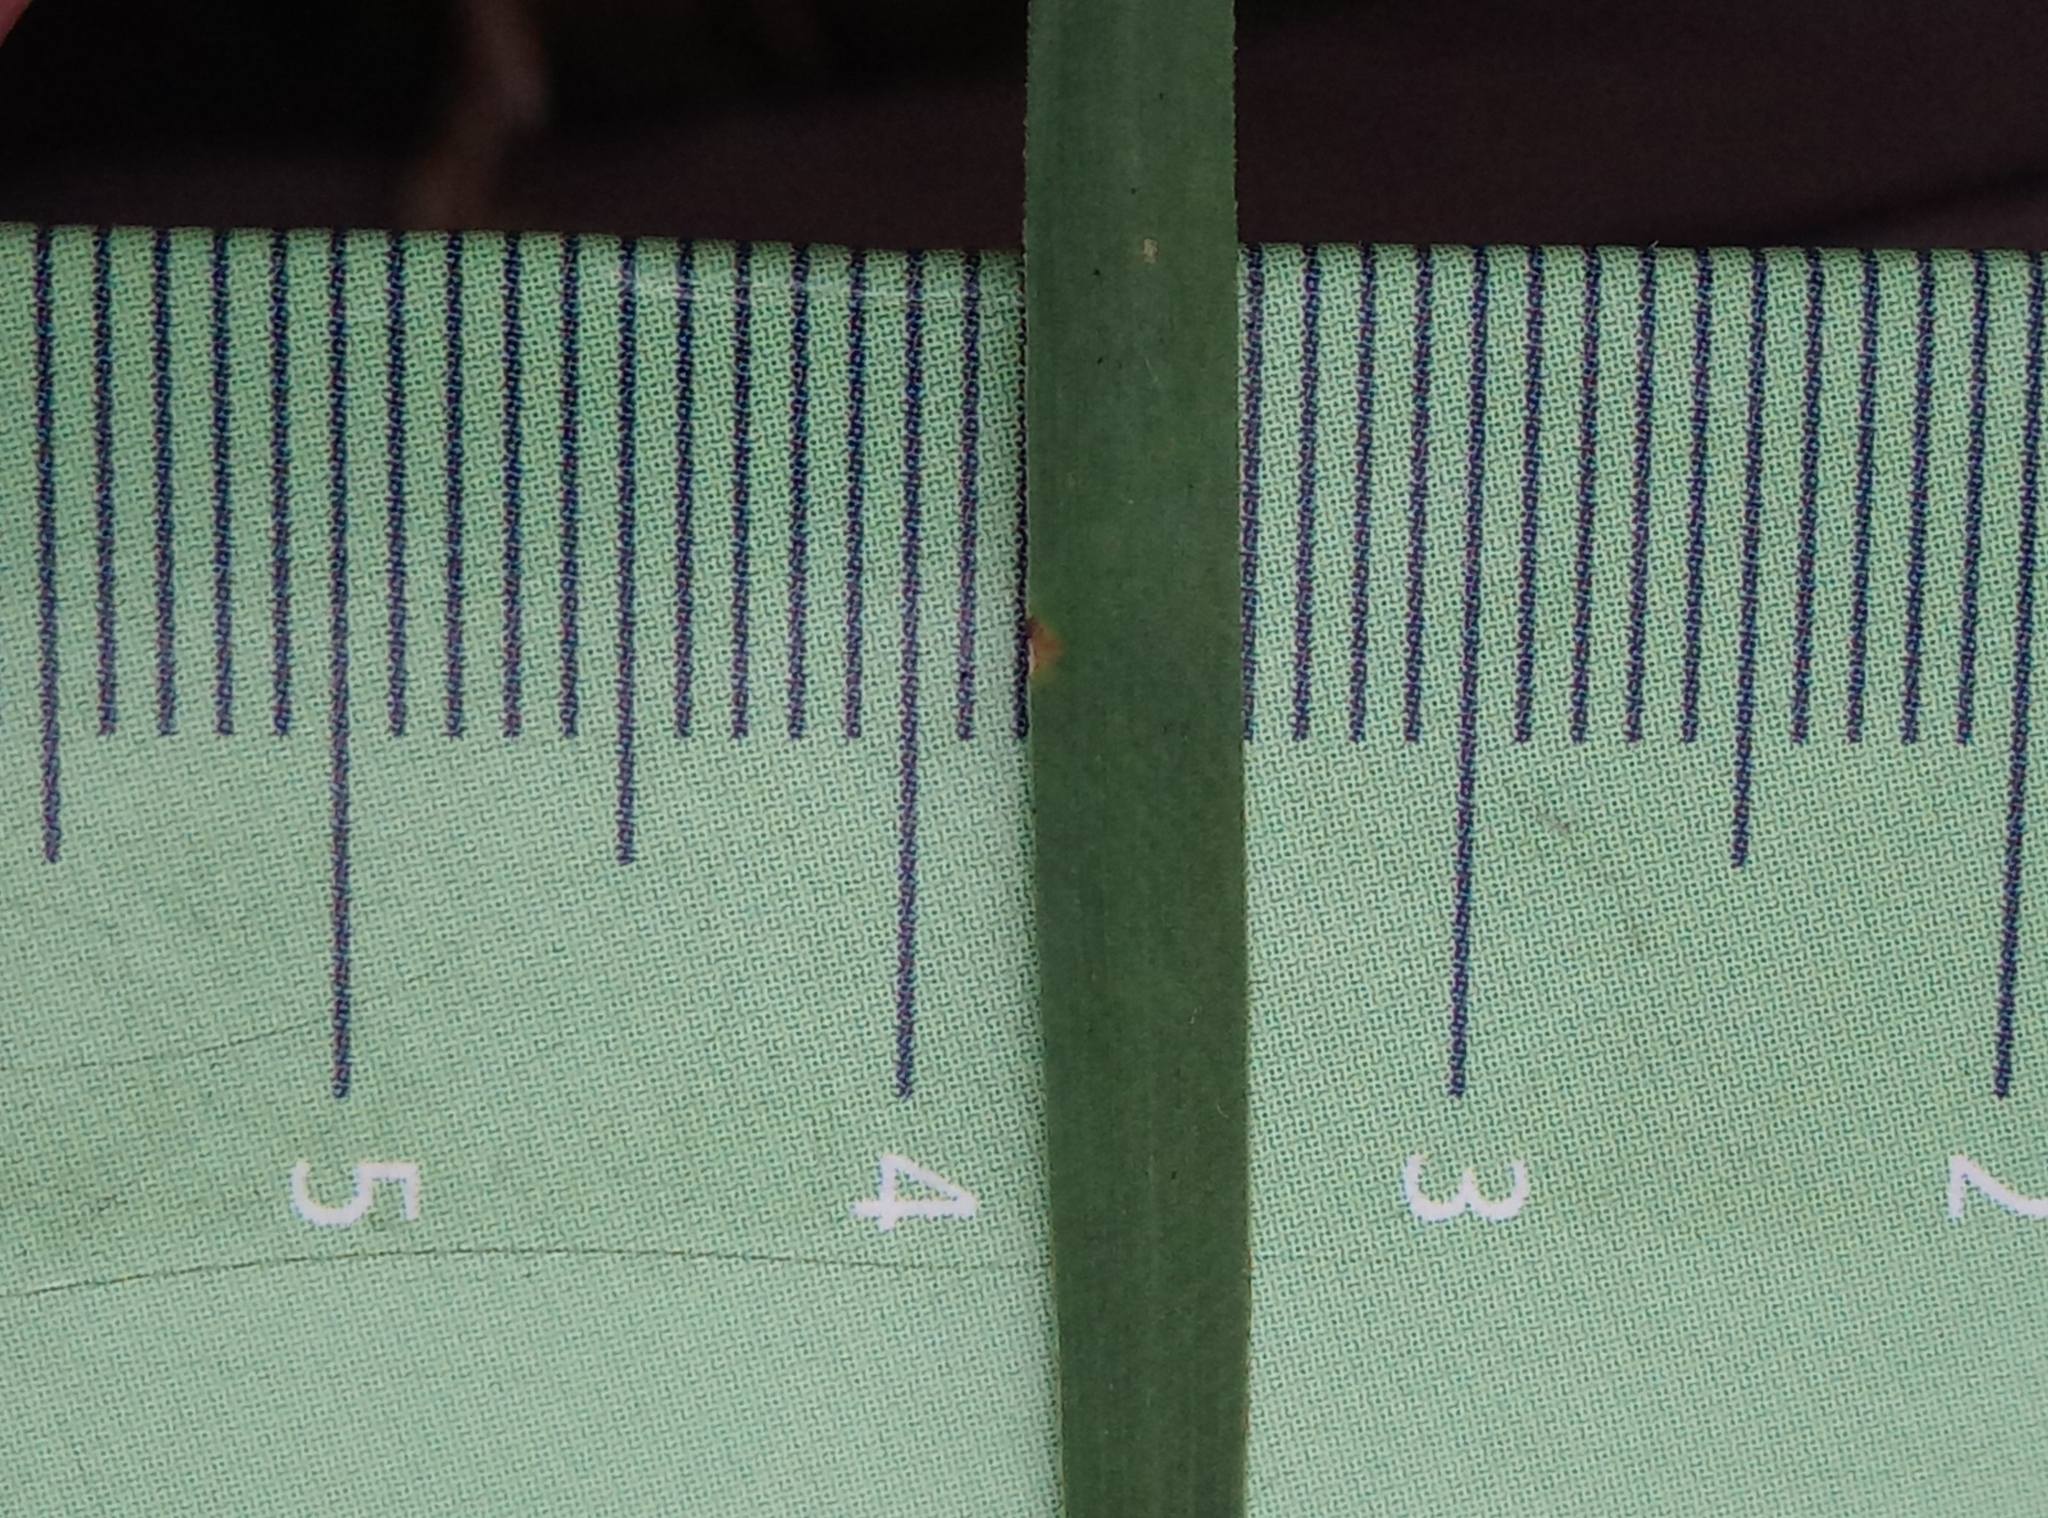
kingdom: Plantae
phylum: Tracheophyta
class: Magnoliopsida
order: Caryophyllales
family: Caryophyllaceae
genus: Dianthus
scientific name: Dianthus carthusianorum
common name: Carthusian pink
